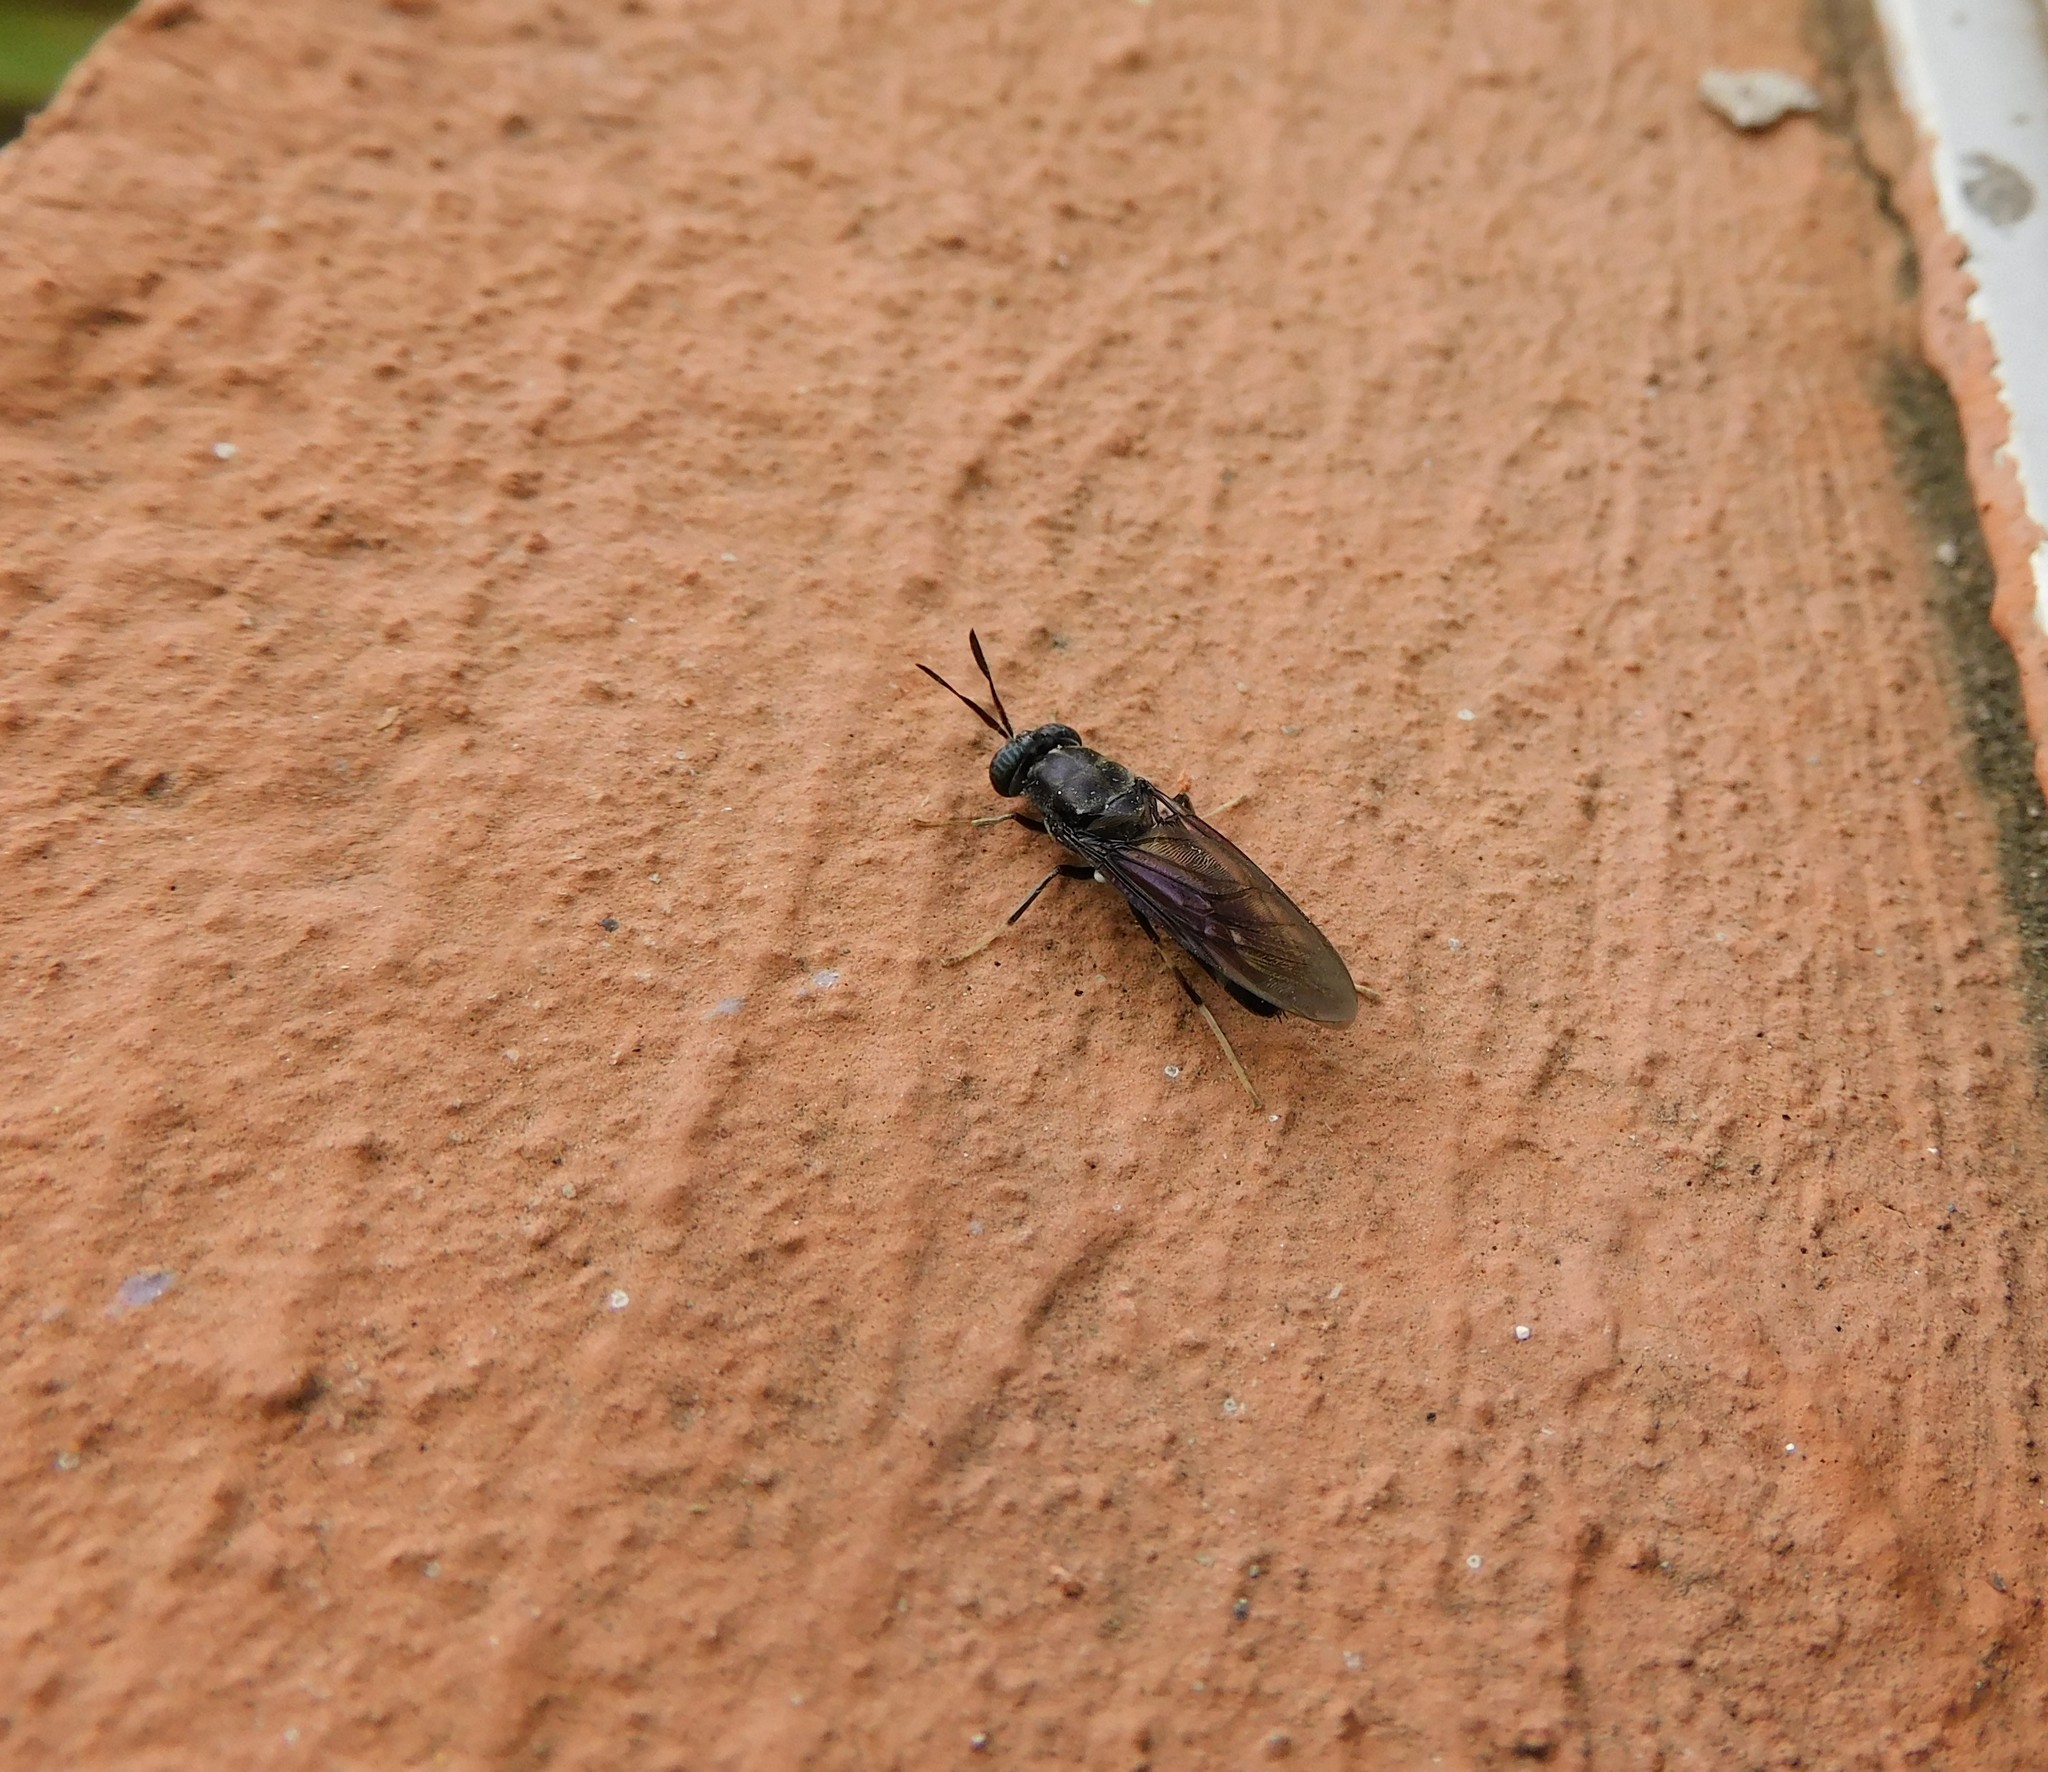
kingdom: Animalia
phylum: Arthropoda
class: Insecta
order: Diptera
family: Stratiomyidae
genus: Hermetia
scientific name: Hermetia illucens
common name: Black soldier fly
